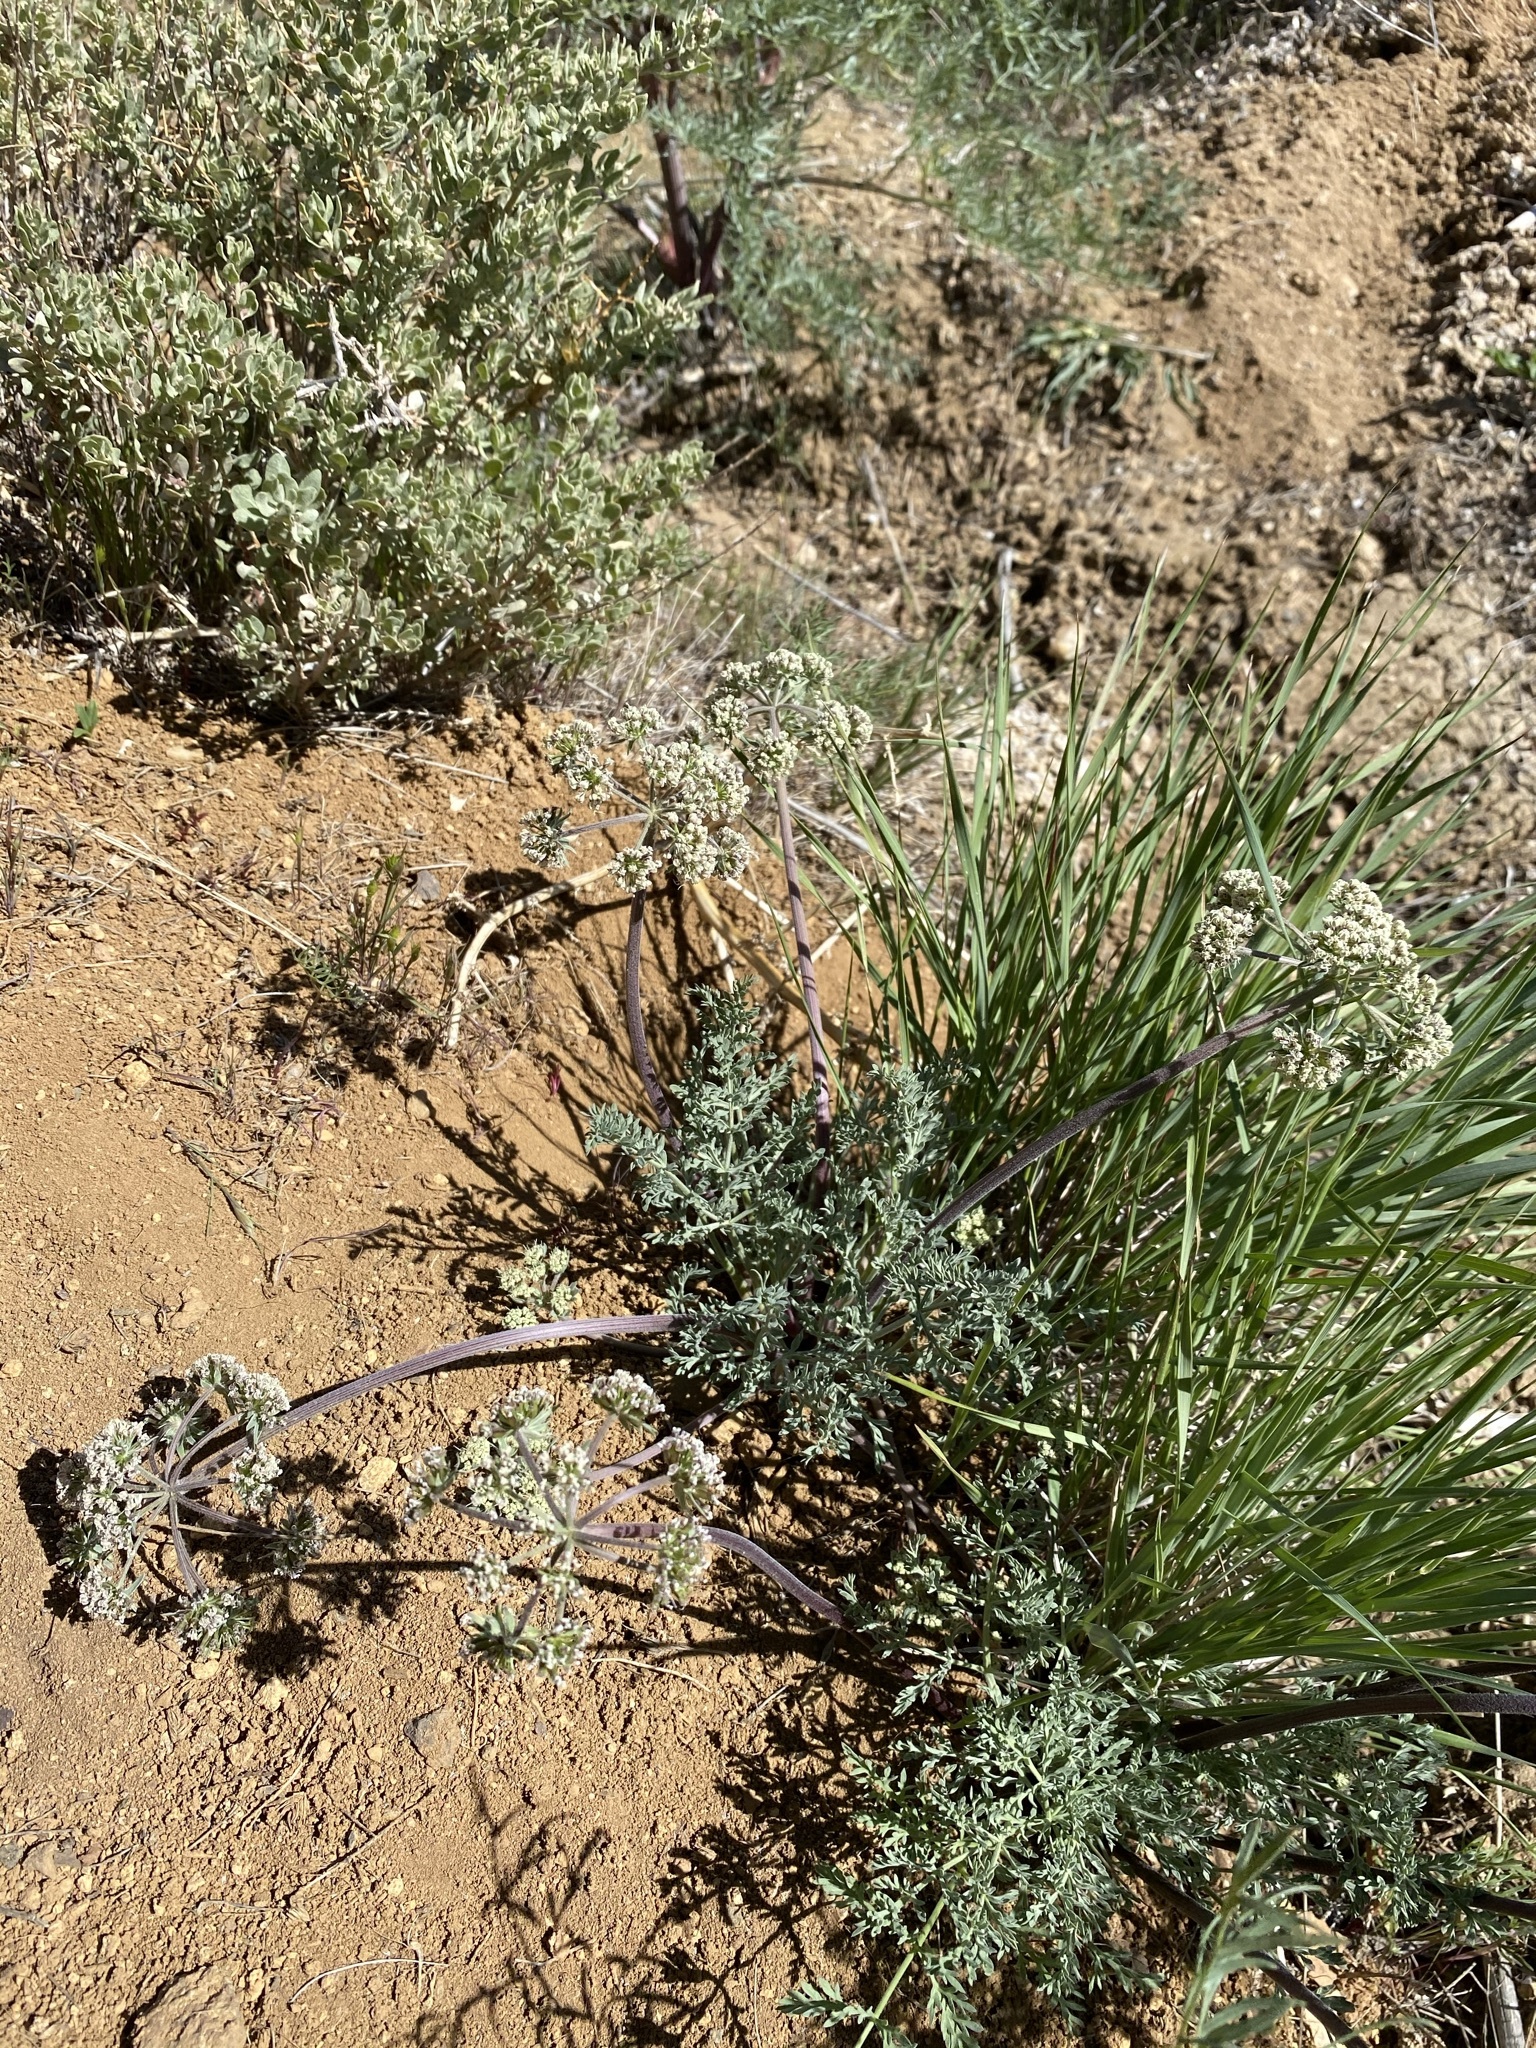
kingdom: Plantae
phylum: Tracheophyta
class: Magnoliopsida
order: Apiales
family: Apiaceae
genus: Lomatium
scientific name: Lomatium macrocarpum
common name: Big-seed biscuitroot
